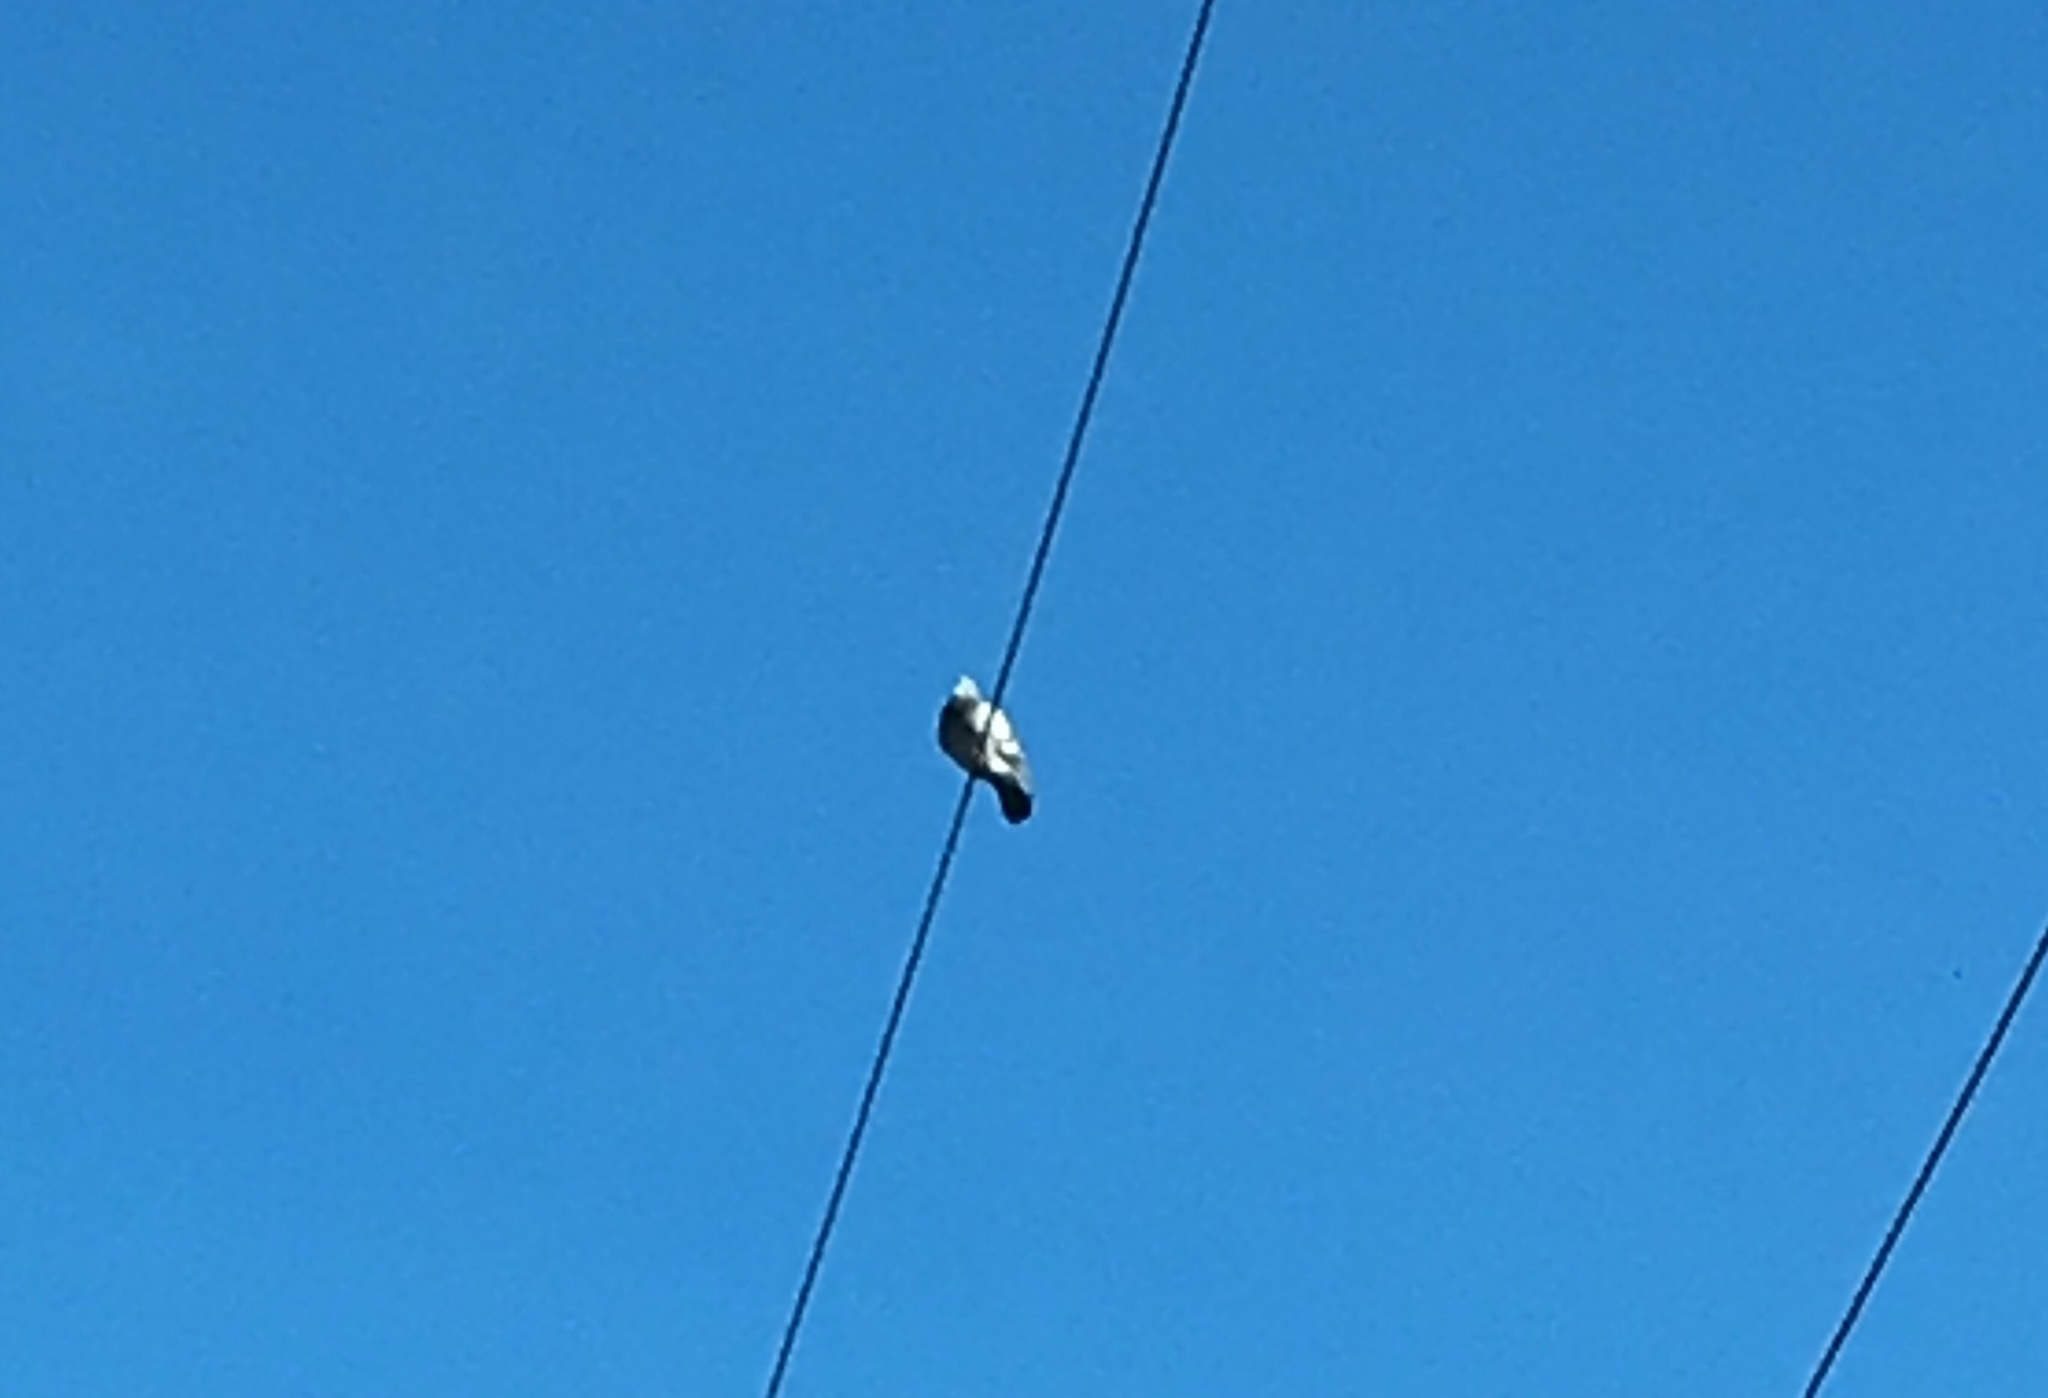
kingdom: Animalia
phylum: Chordata
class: Aves
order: Columbiformes
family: Columbidae
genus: Columba
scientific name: Columba livia
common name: Rock pigeon
